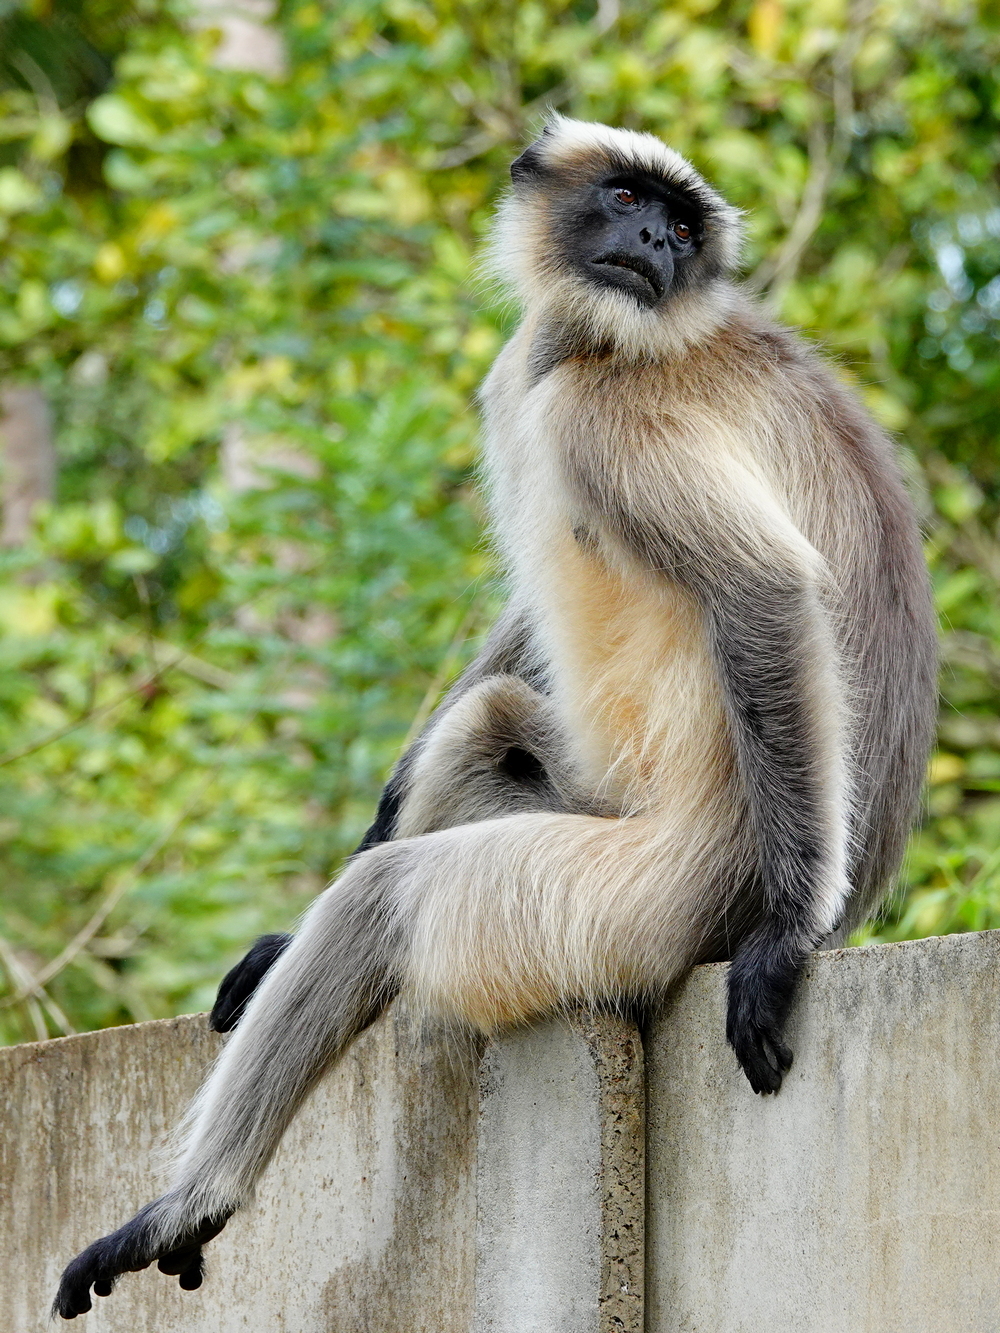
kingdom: Animalia
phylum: Chordata
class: Mammalia
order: Primates
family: Cercopithecidae
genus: Semnopithecus
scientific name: Semnopithecus hypoleucos
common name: Black-footed gray langur
